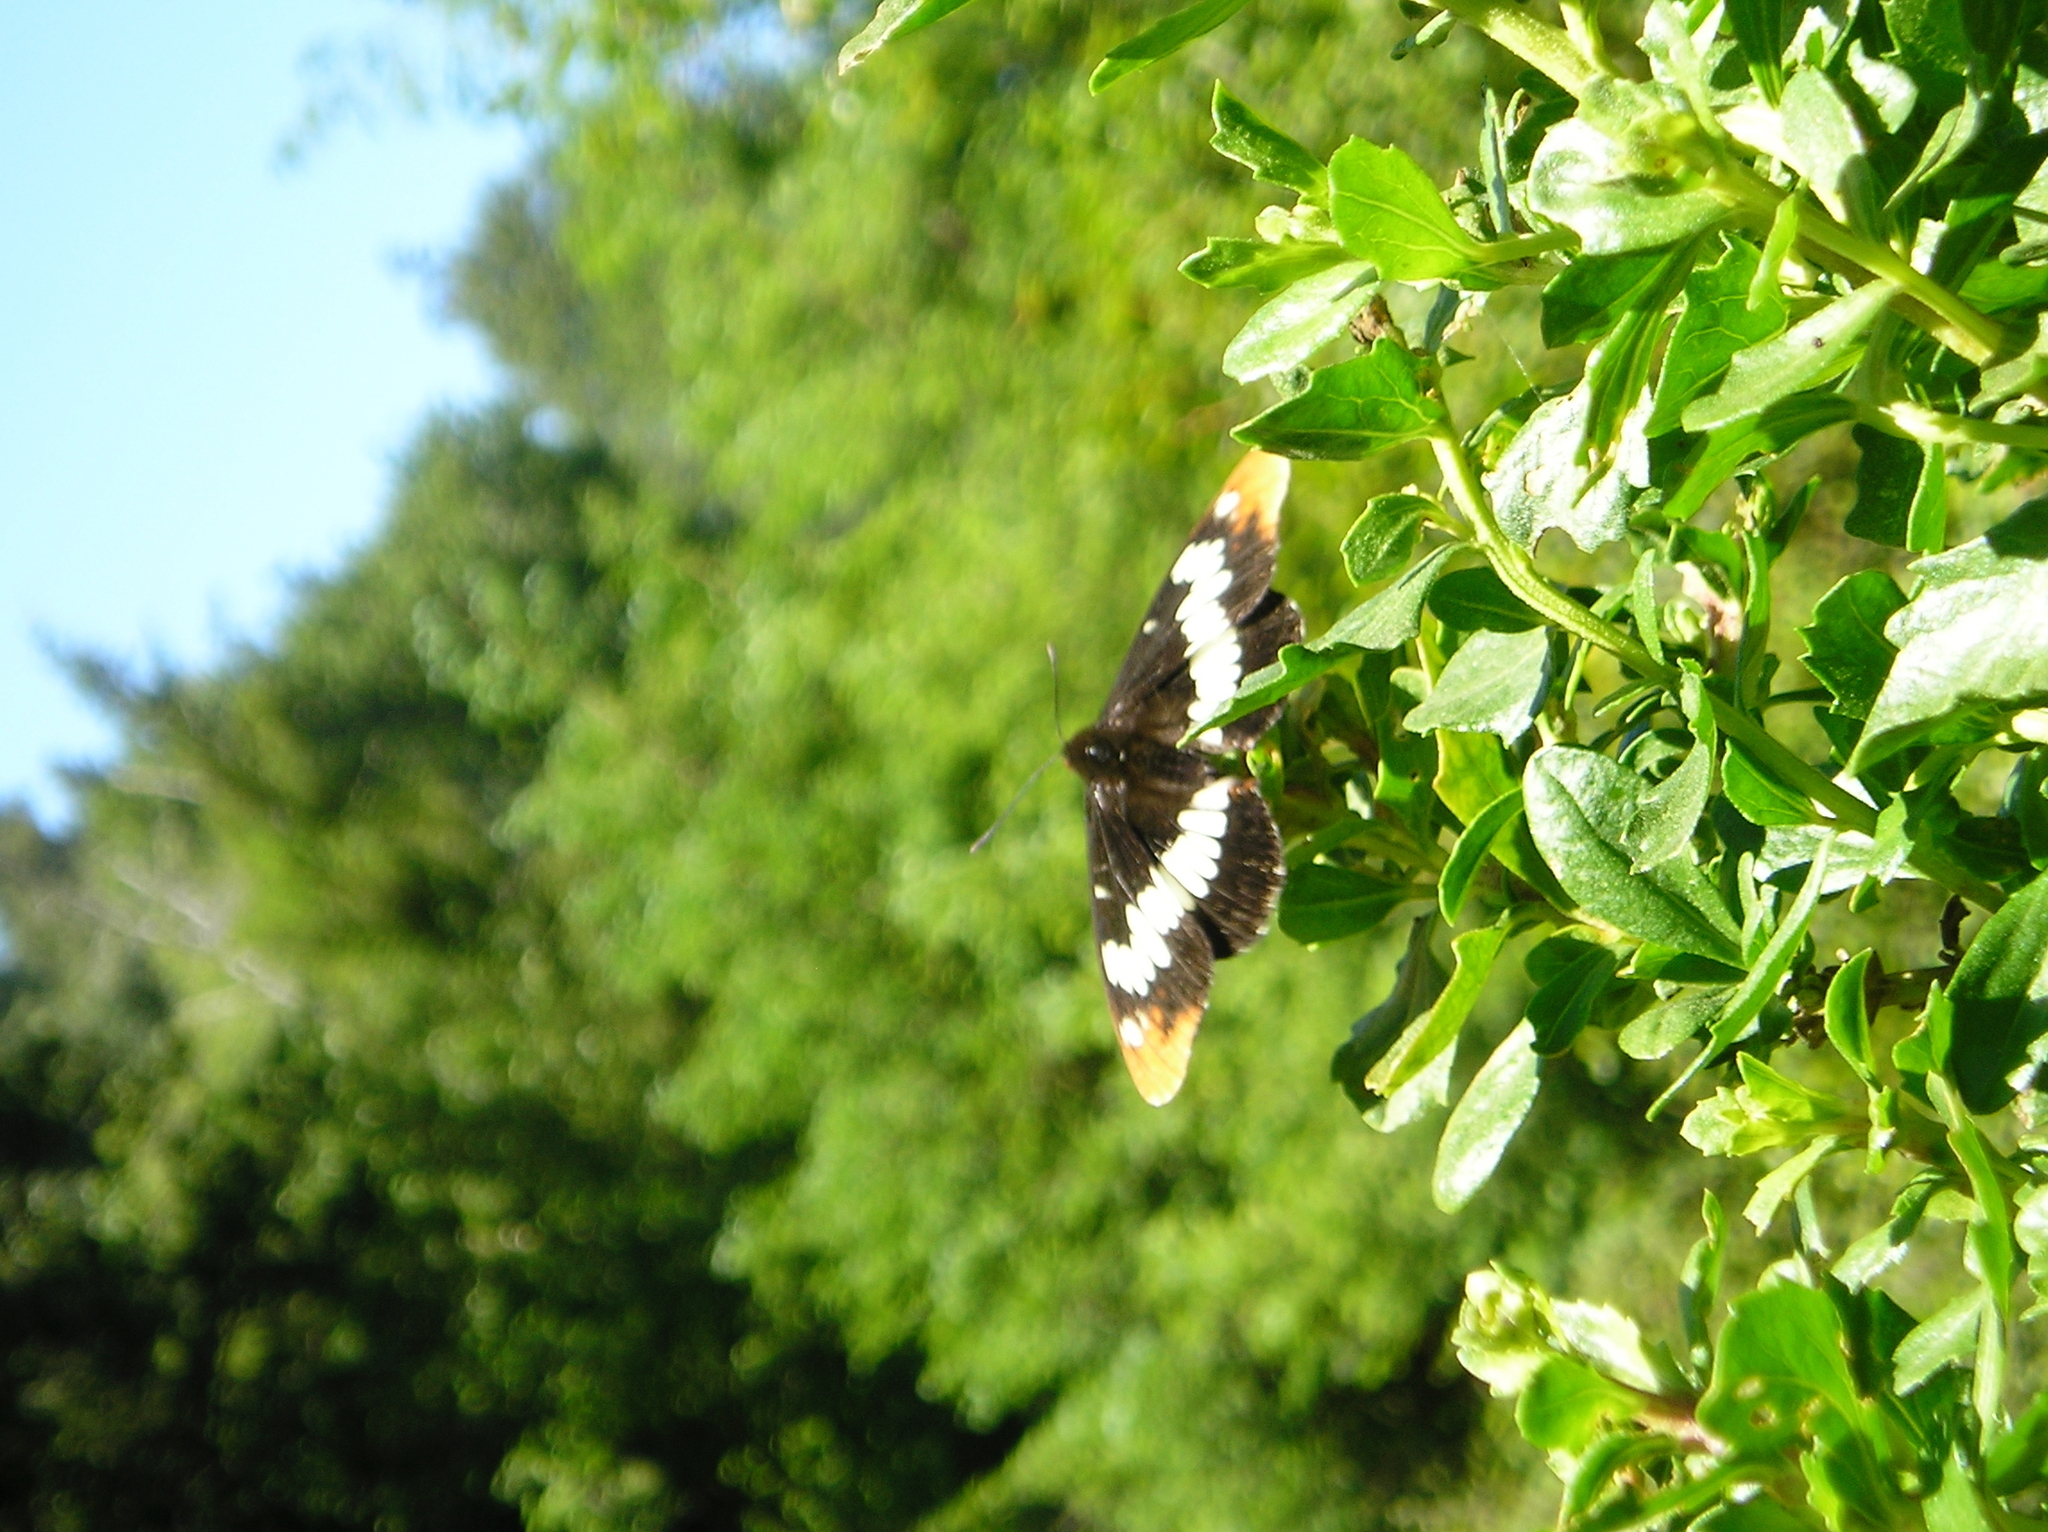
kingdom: Animalia
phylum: Arthropoda
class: Insecta
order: Lepidoptera
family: Nymphalidae
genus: Limenitis
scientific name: Limenitis lorquini
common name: Lorquin's admiral
